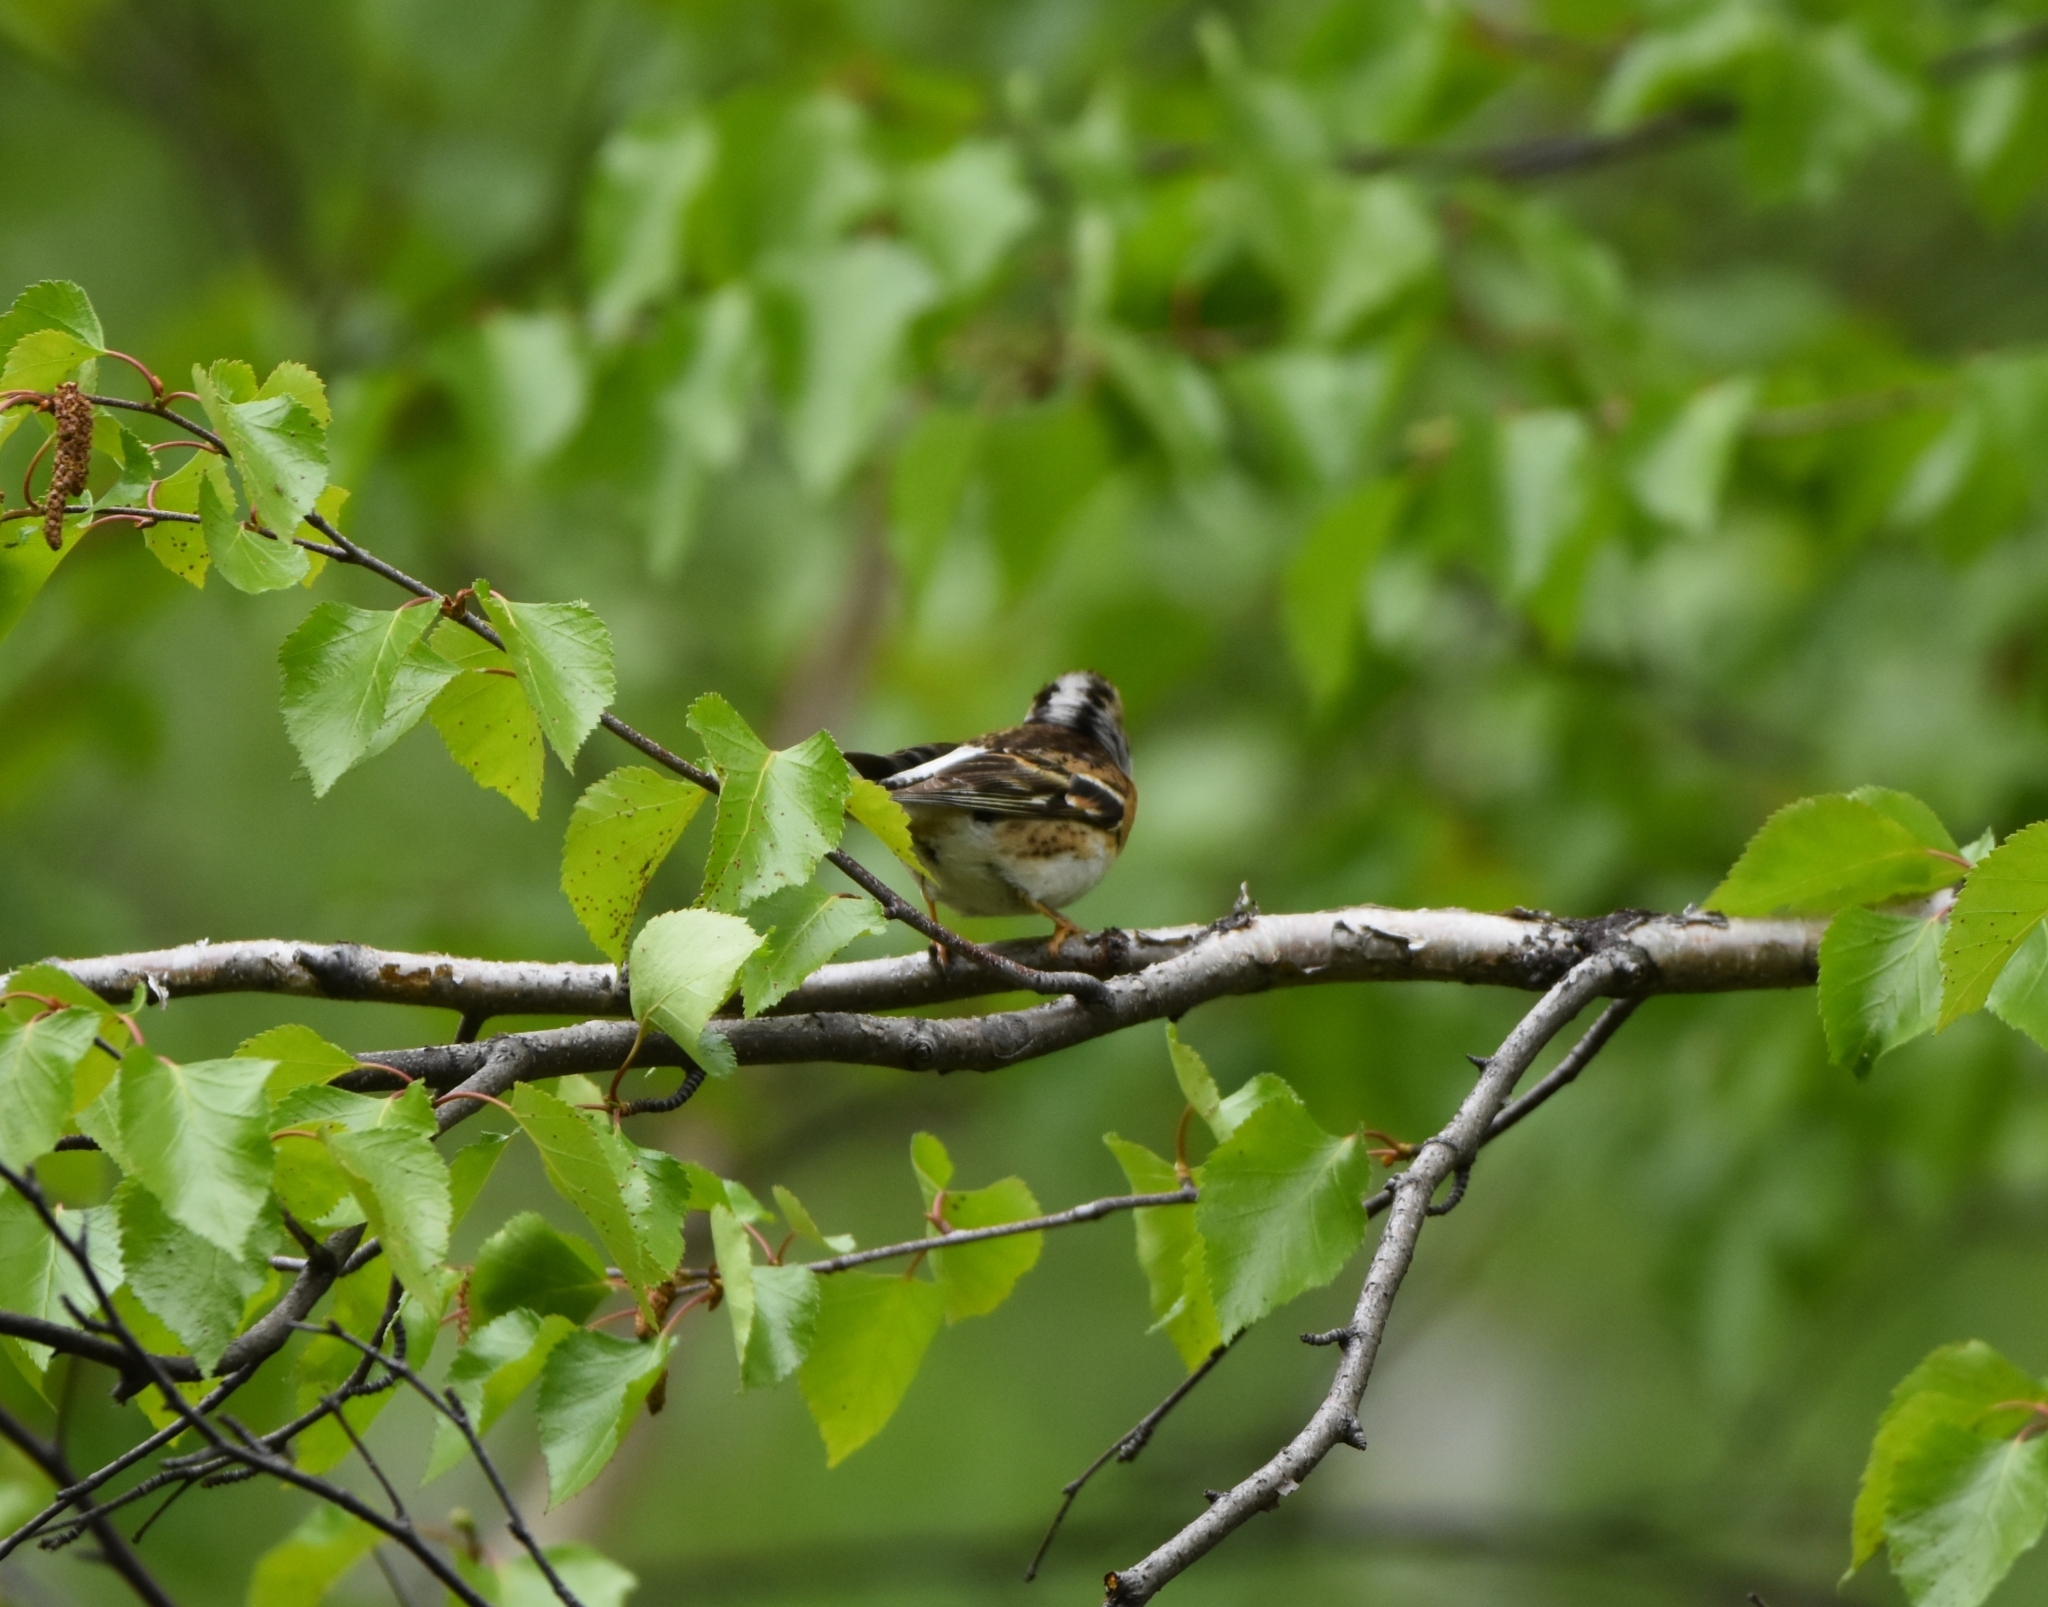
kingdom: Animalia
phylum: Chordata
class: Aves
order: Passeriformes
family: Fringillidae
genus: Fringilla
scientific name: Fringilla montifringilla
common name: Brambling
